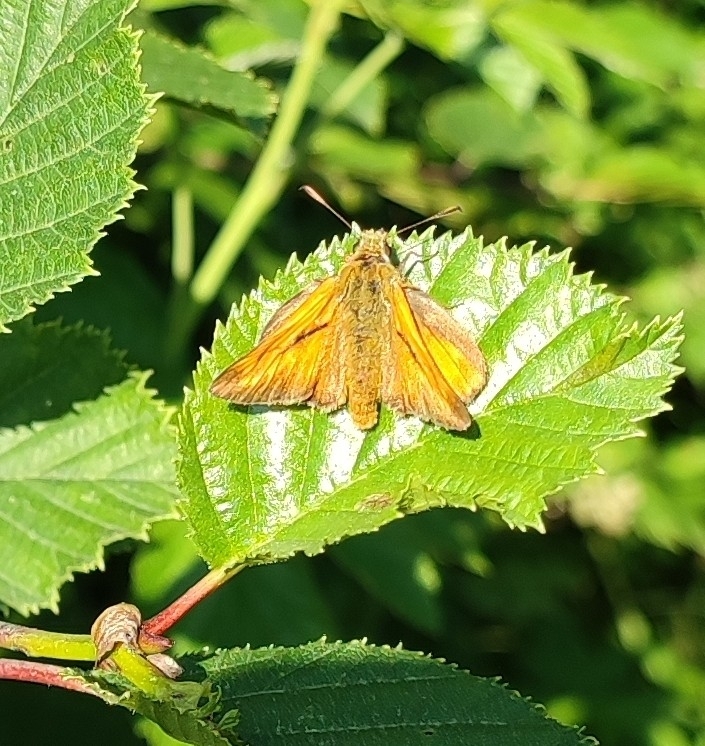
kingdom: Animalia
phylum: Arthropoda
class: Insecta
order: Lepidoptera
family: Hesperiidae
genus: Ochlodes
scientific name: Ochlodes venata
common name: Large skipper
